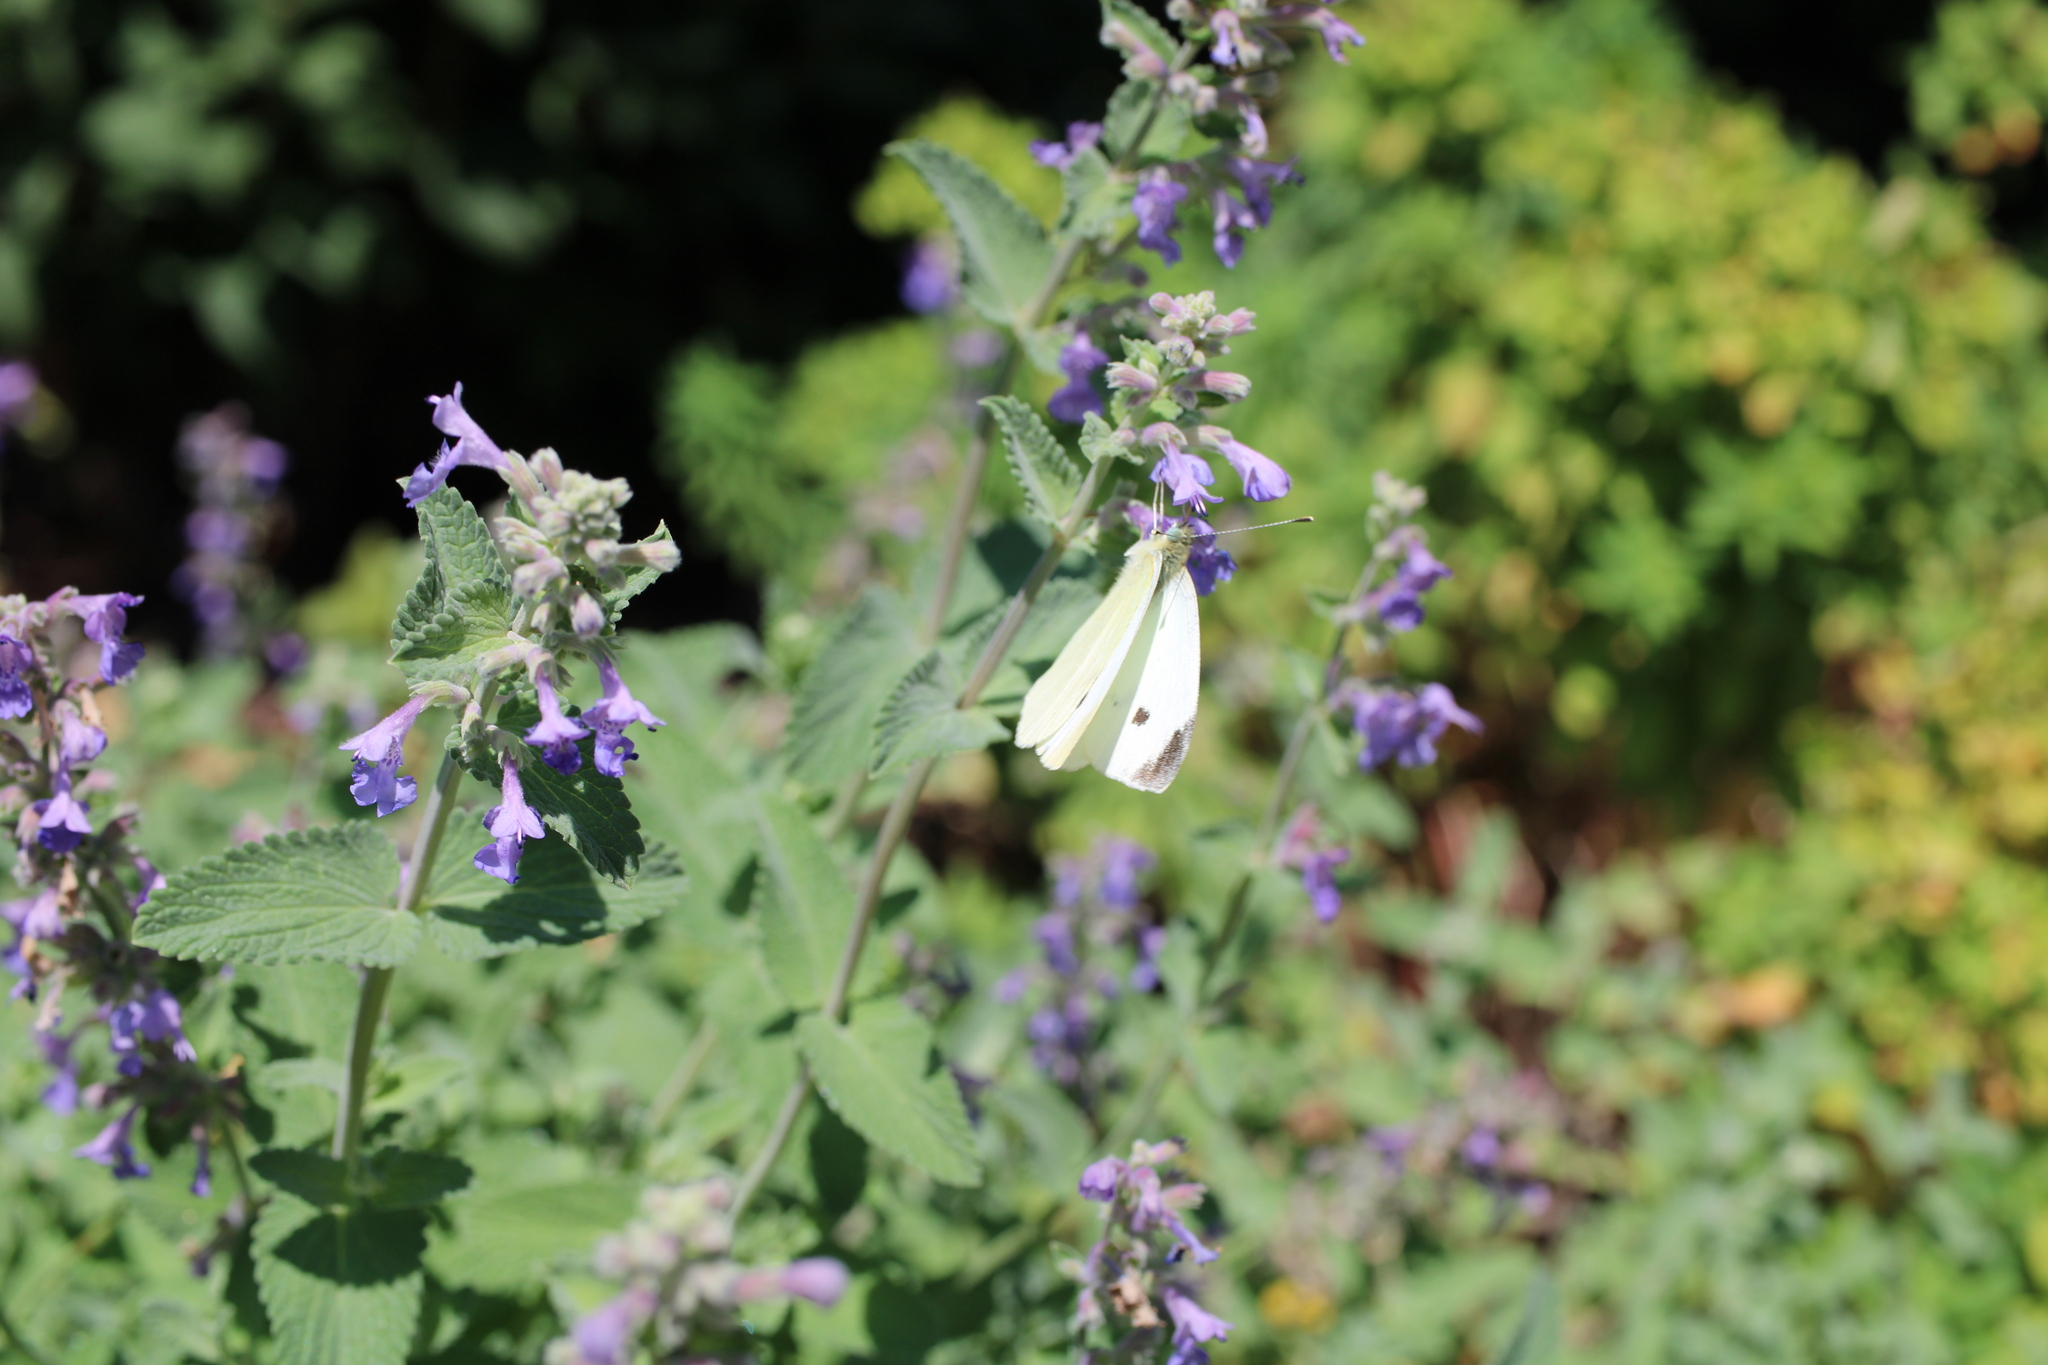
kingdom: Animalia
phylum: Arthropoda
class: Insecta
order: Lepidoptera
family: Pieridae
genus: Pieris
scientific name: Pieris rapae
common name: Small white
